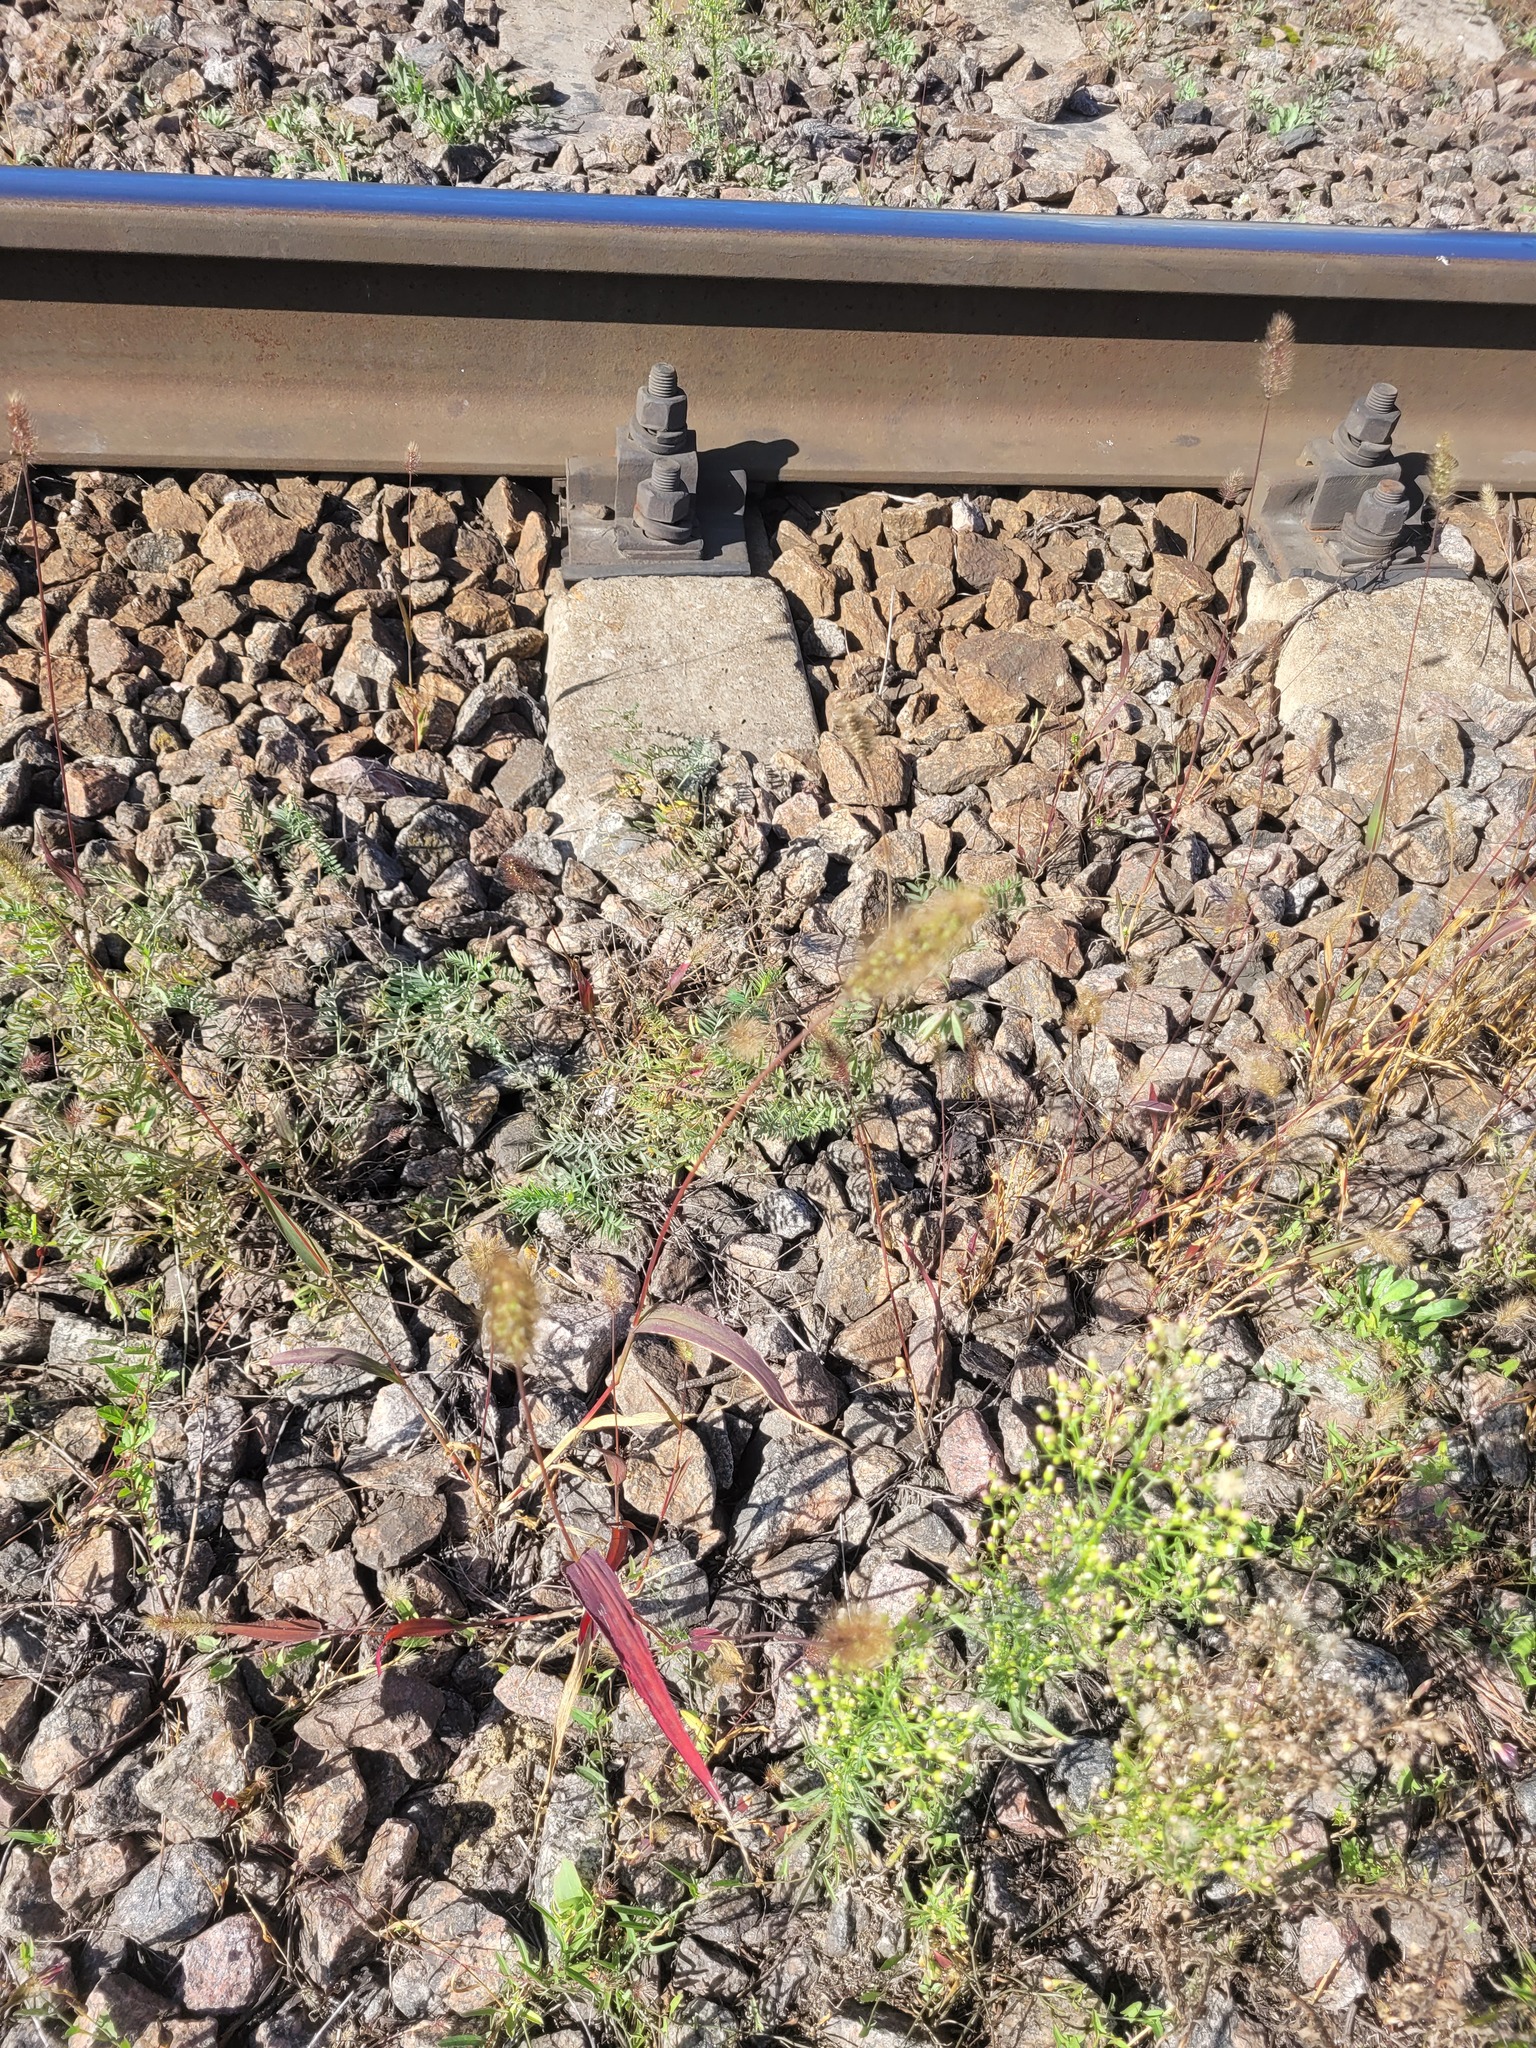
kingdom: Plantae
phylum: Tracheophyta
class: Liliopsida
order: Poales
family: Poaceae
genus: Setaria
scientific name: Setaria viridis
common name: Green bristlegrass
